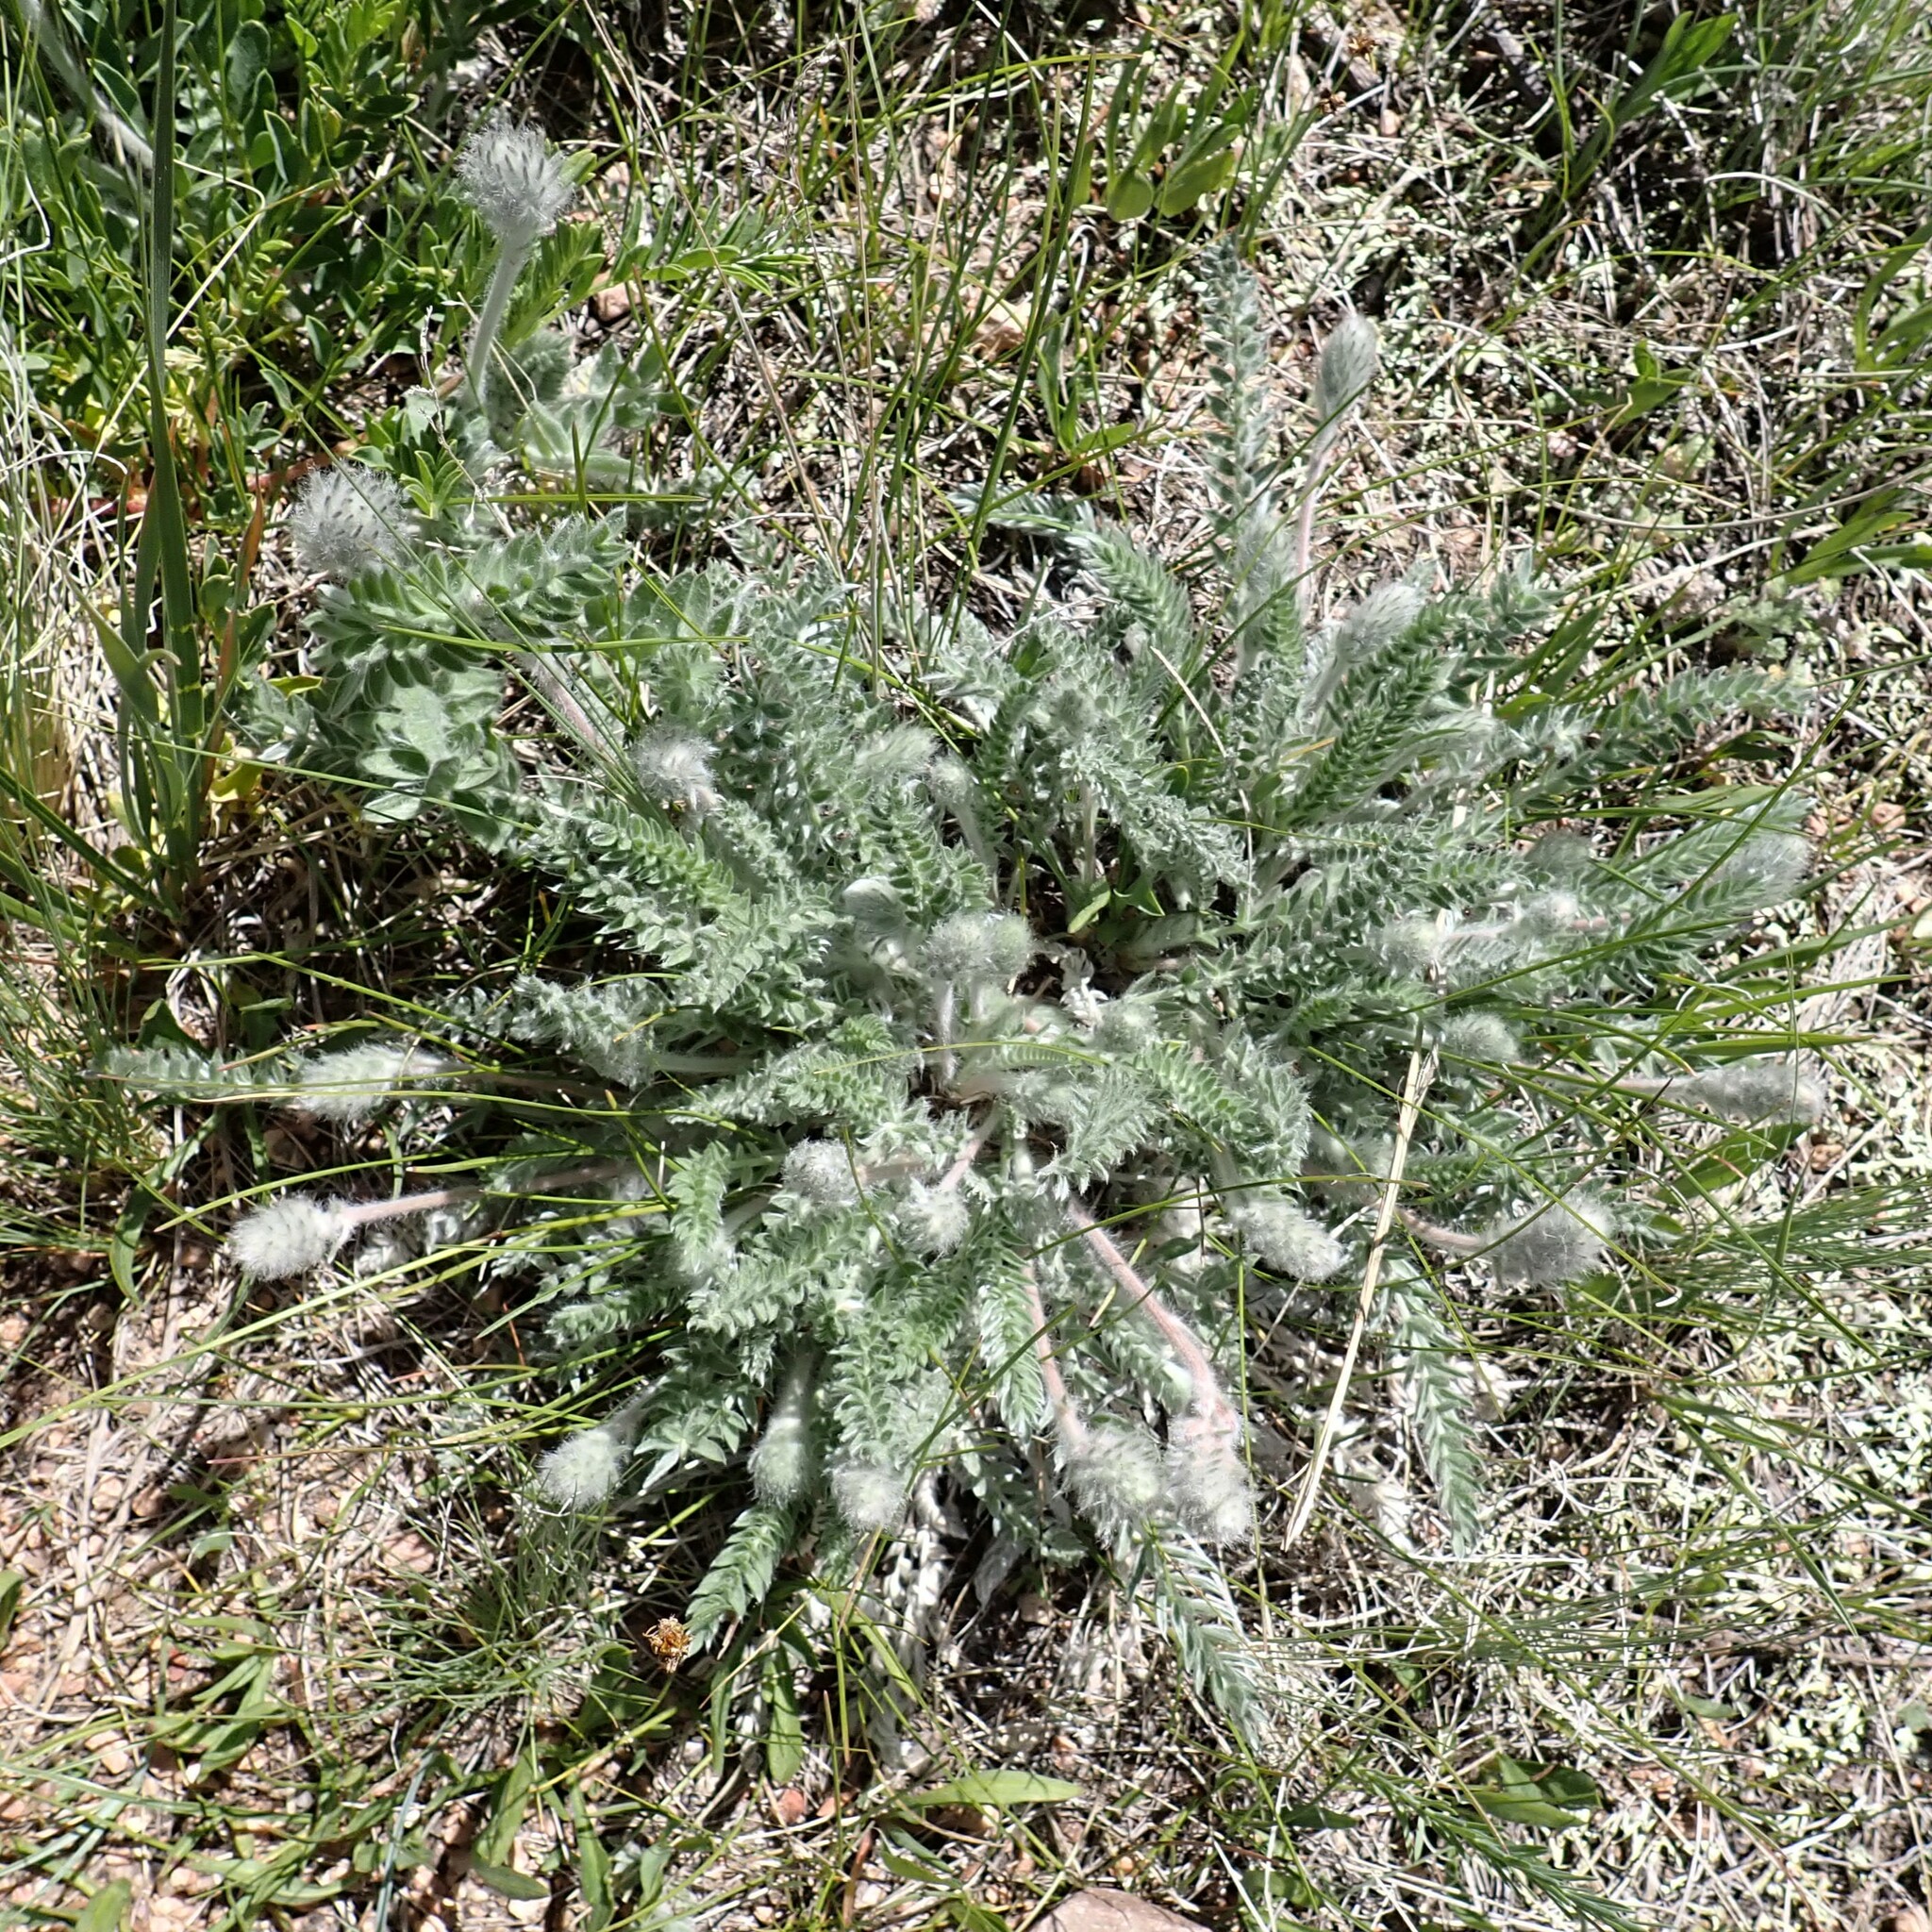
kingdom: Plantae
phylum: Tracheophyta
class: Magnoliopsida
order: Fabales
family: Fabaceae
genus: Oxytropis
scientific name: Oxytropis splendens
